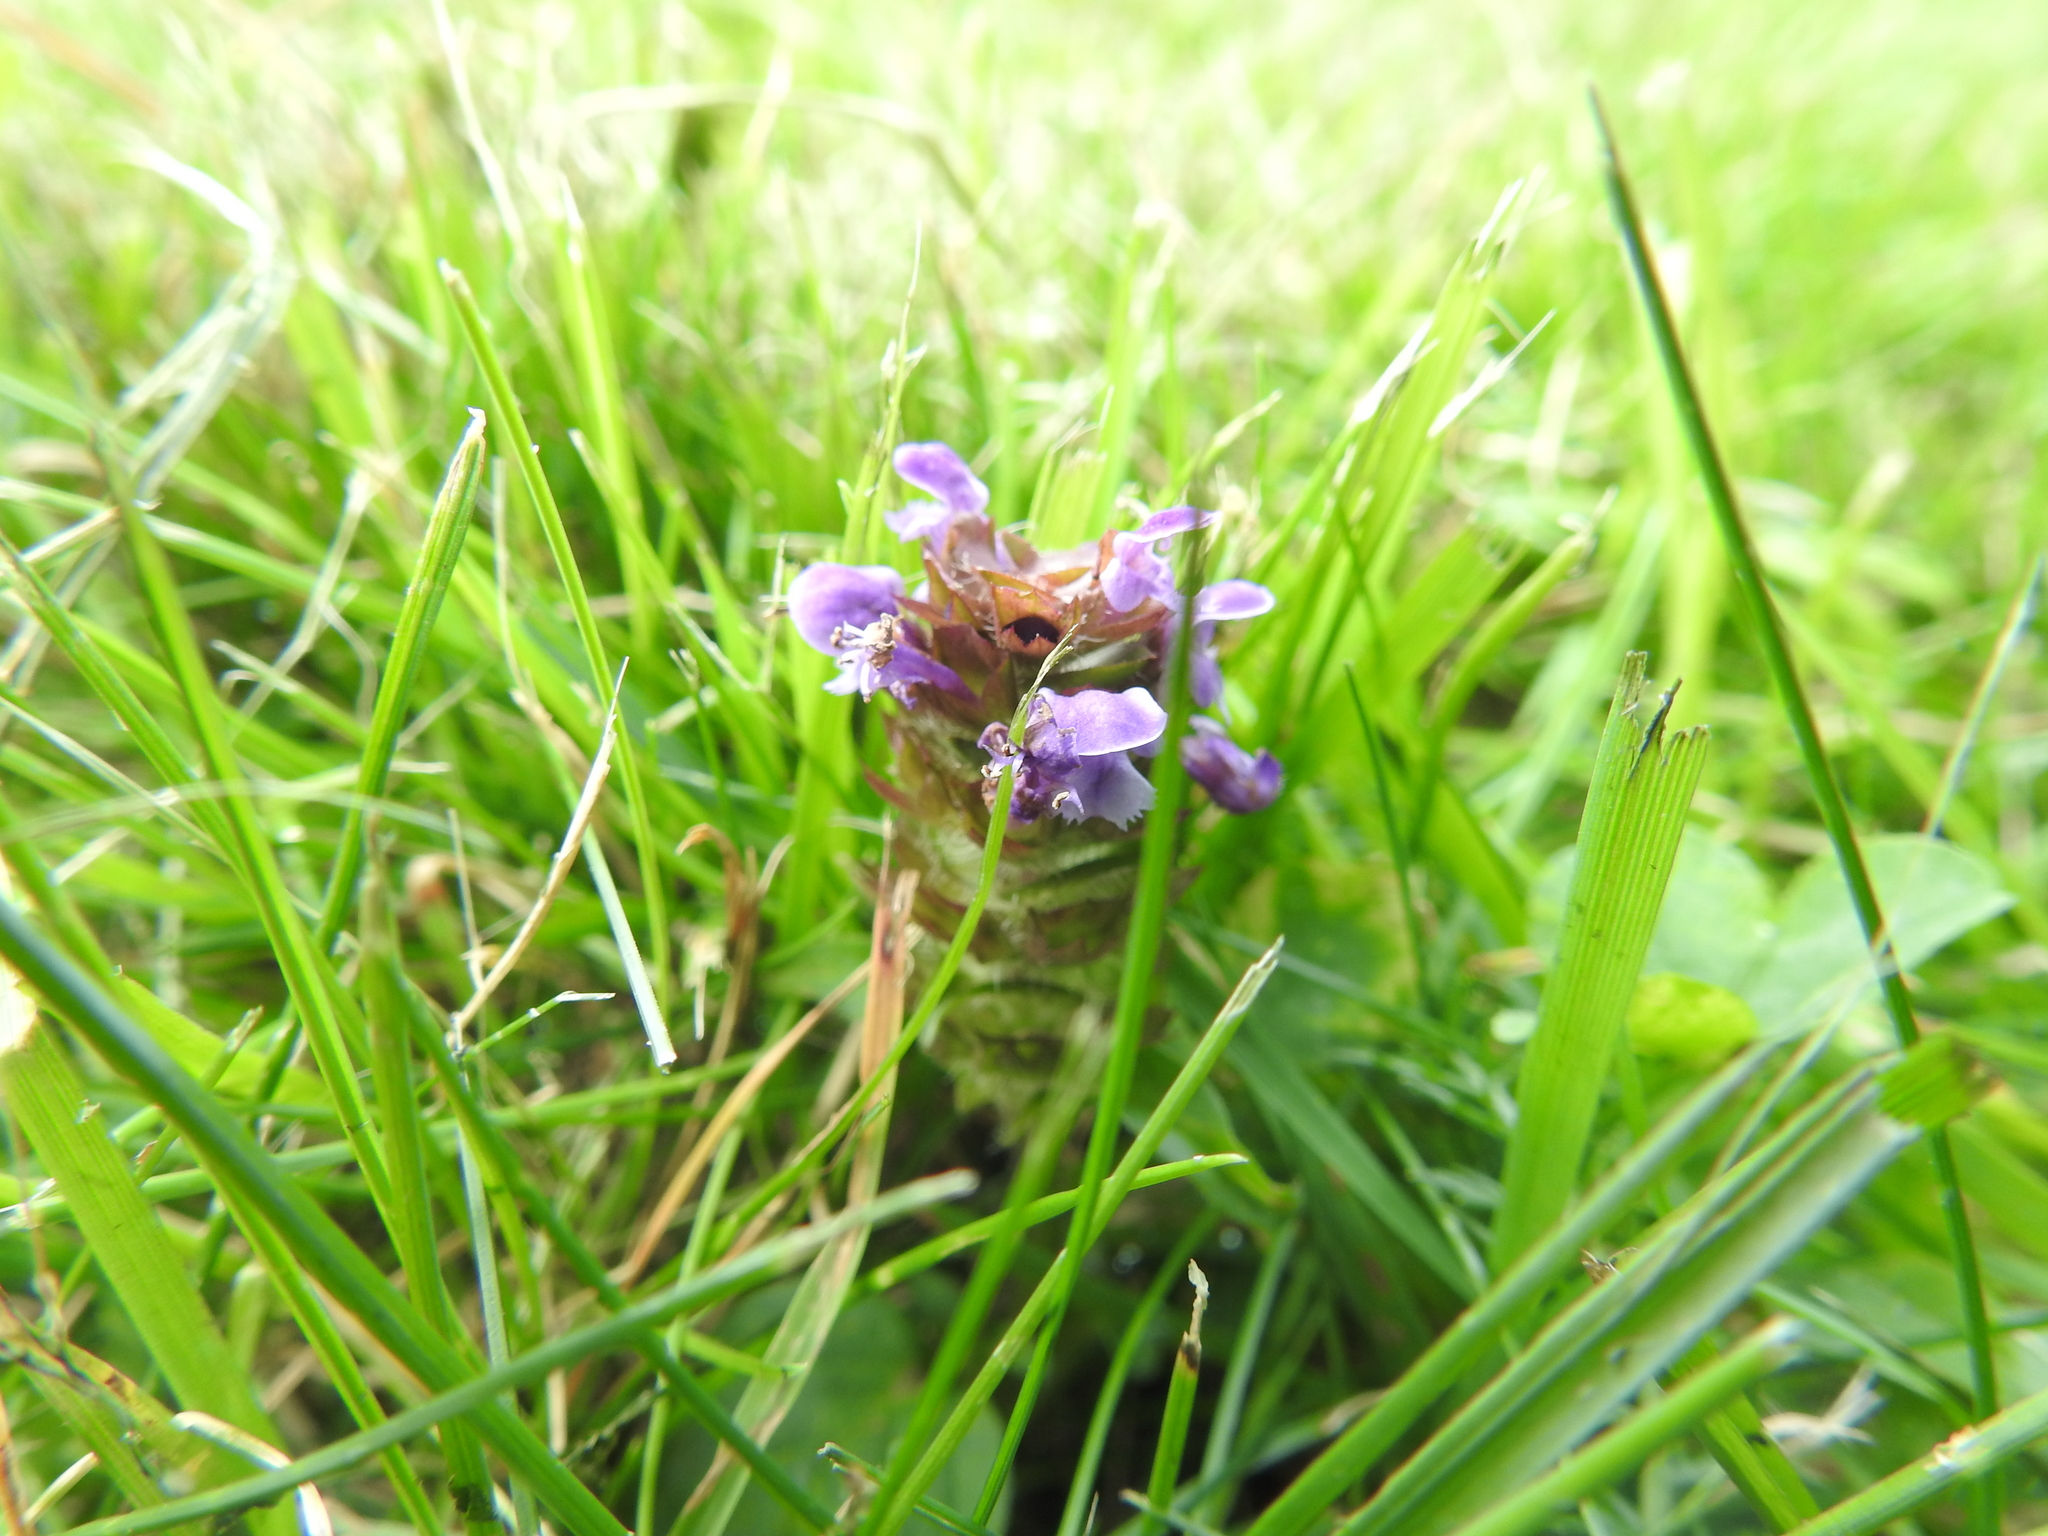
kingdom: Plantae
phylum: Tracheophyta
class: Magnoliopsida
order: Lamiales
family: Lamiaceae
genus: Prunella
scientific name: Prunella vulgaris
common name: Heal-all
